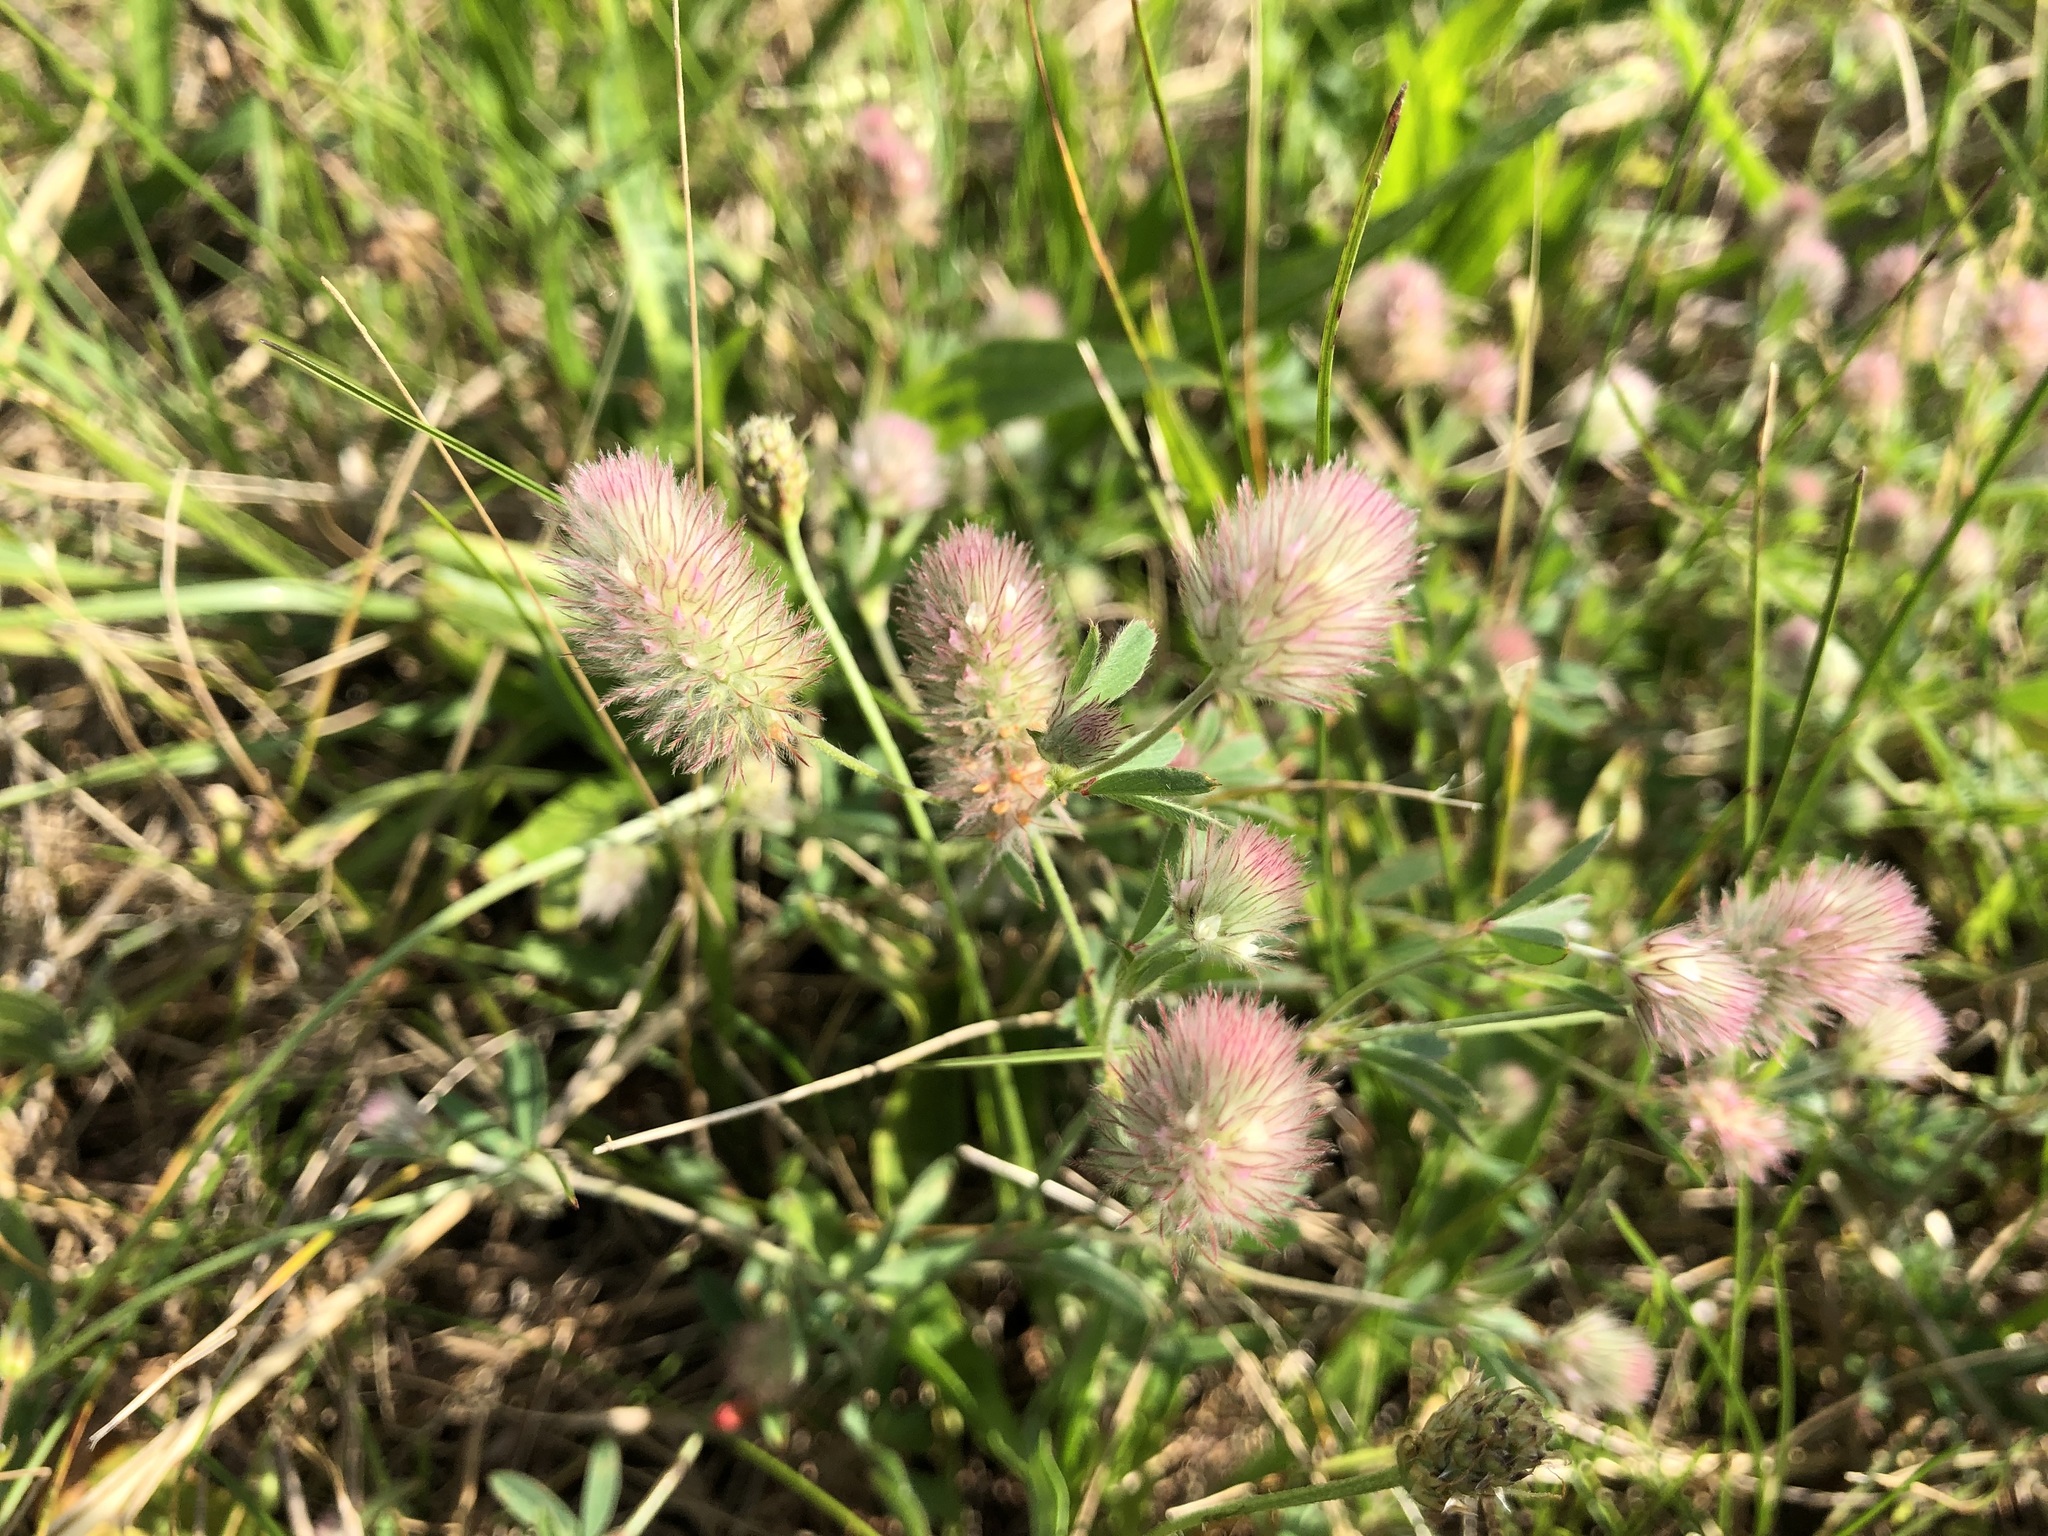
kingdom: Plantae
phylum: Tracheophyta
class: Magnoliopsida
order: Fabales
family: Fabaceae
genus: Trifolium
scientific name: Trifolium arvense
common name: Hare's-foot clover
